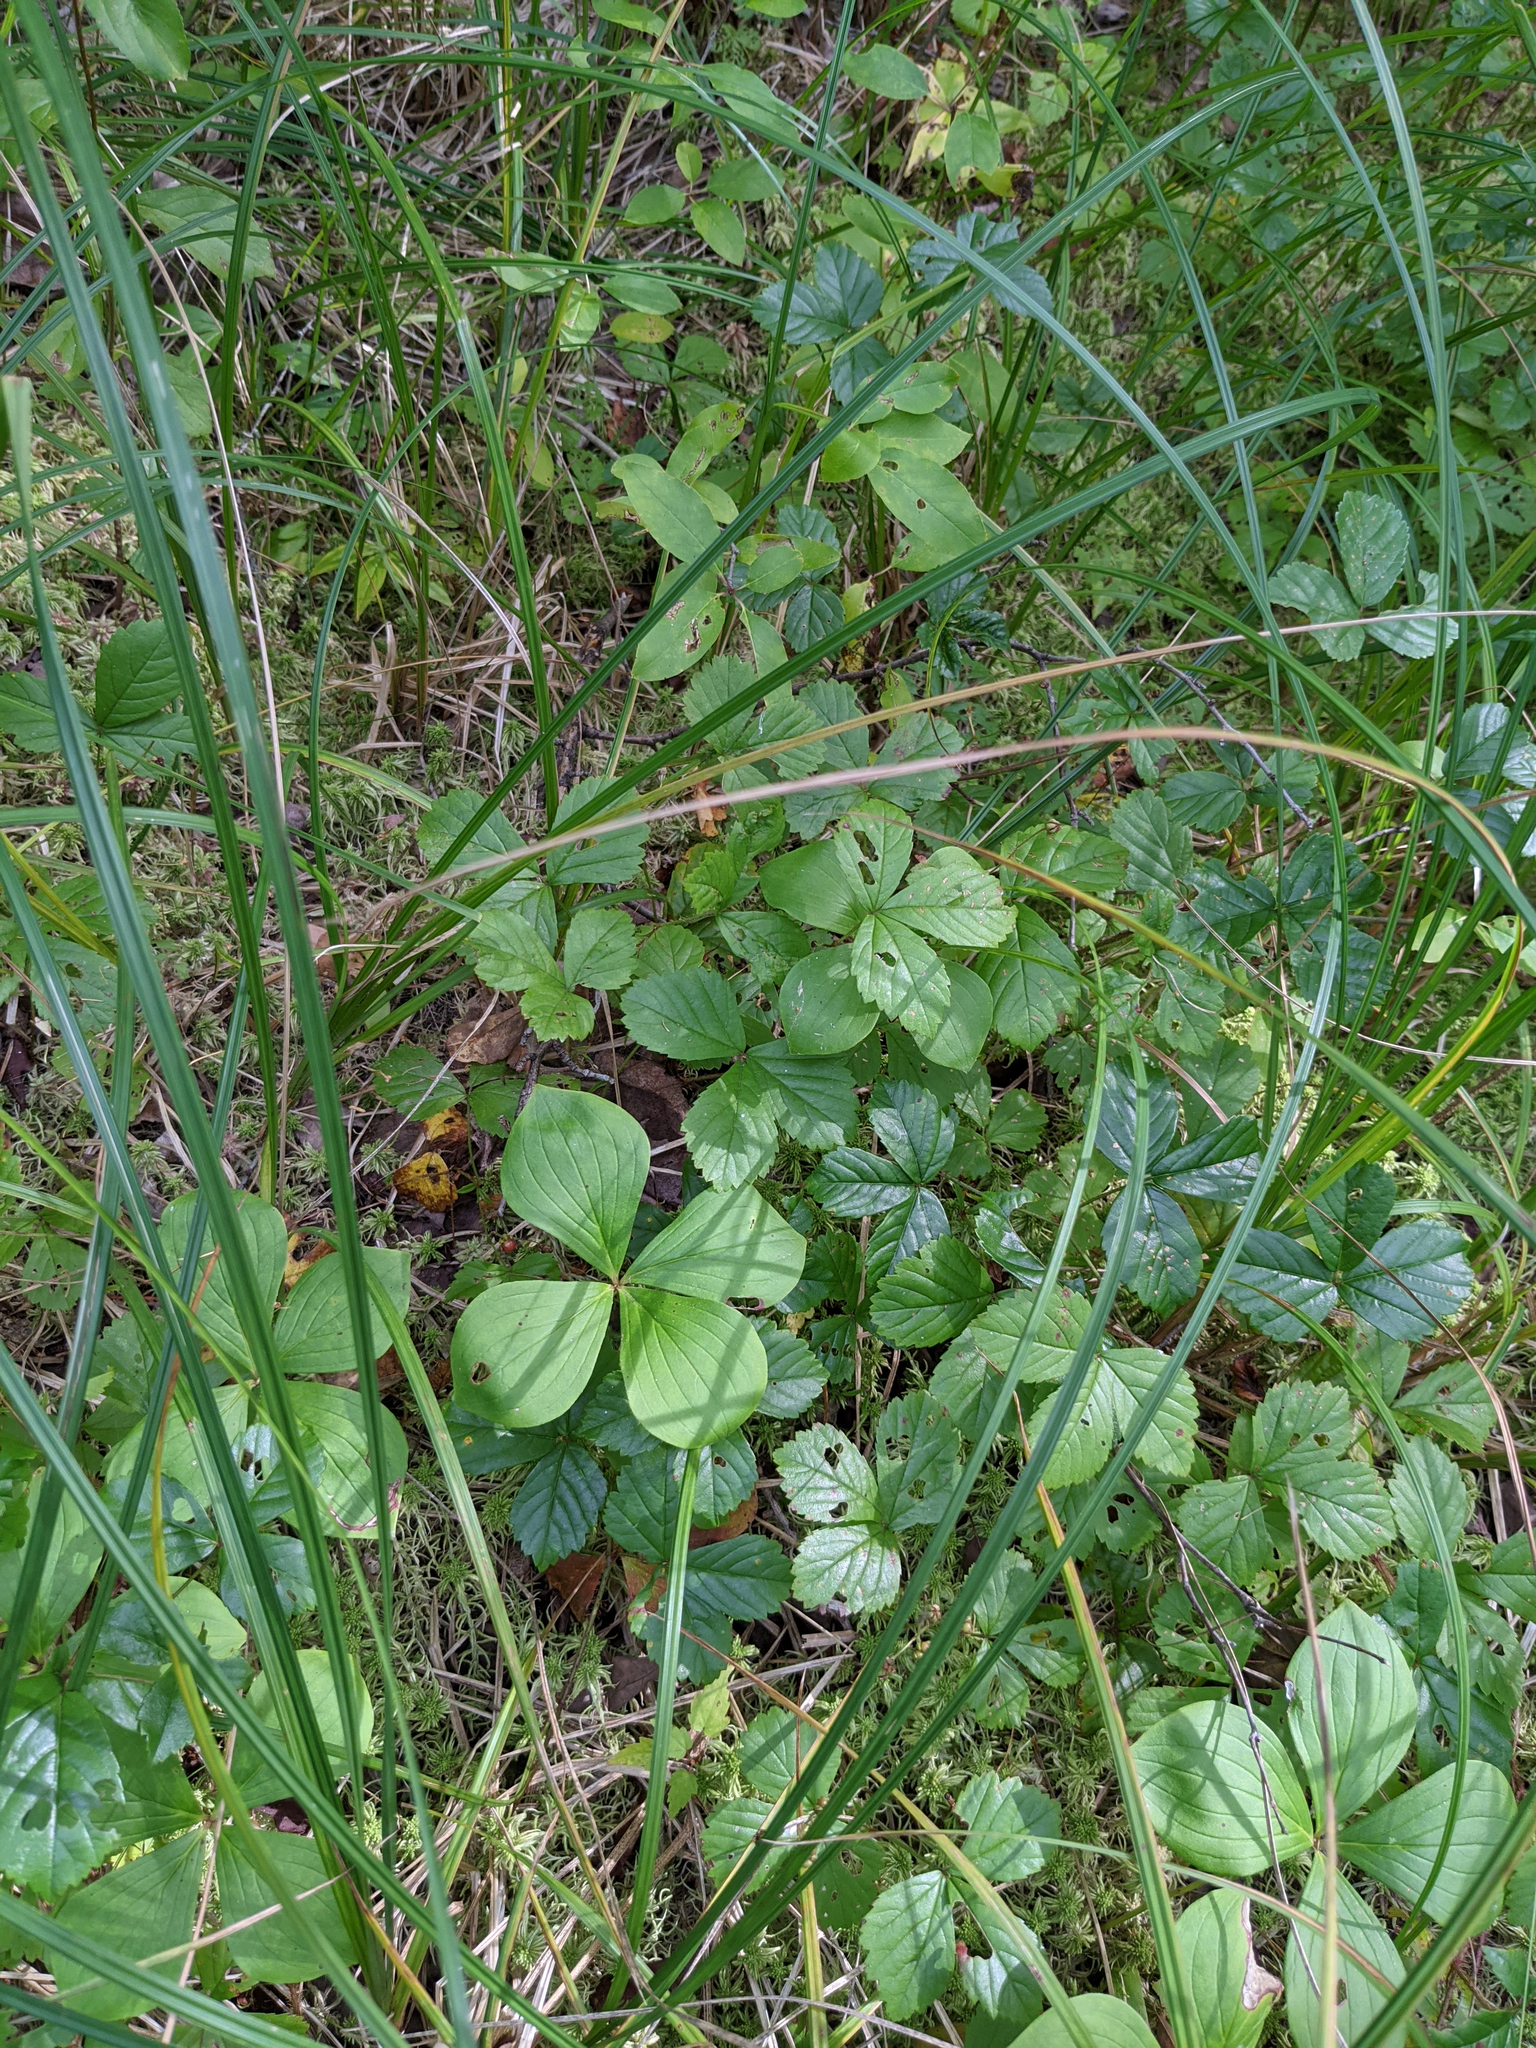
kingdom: Plantae
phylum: Tracheophyta
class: Magnoliopsida
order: Cornales
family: Cornaceae
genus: Cornus
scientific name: Cornus canadensis
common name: Creeping dogwood
